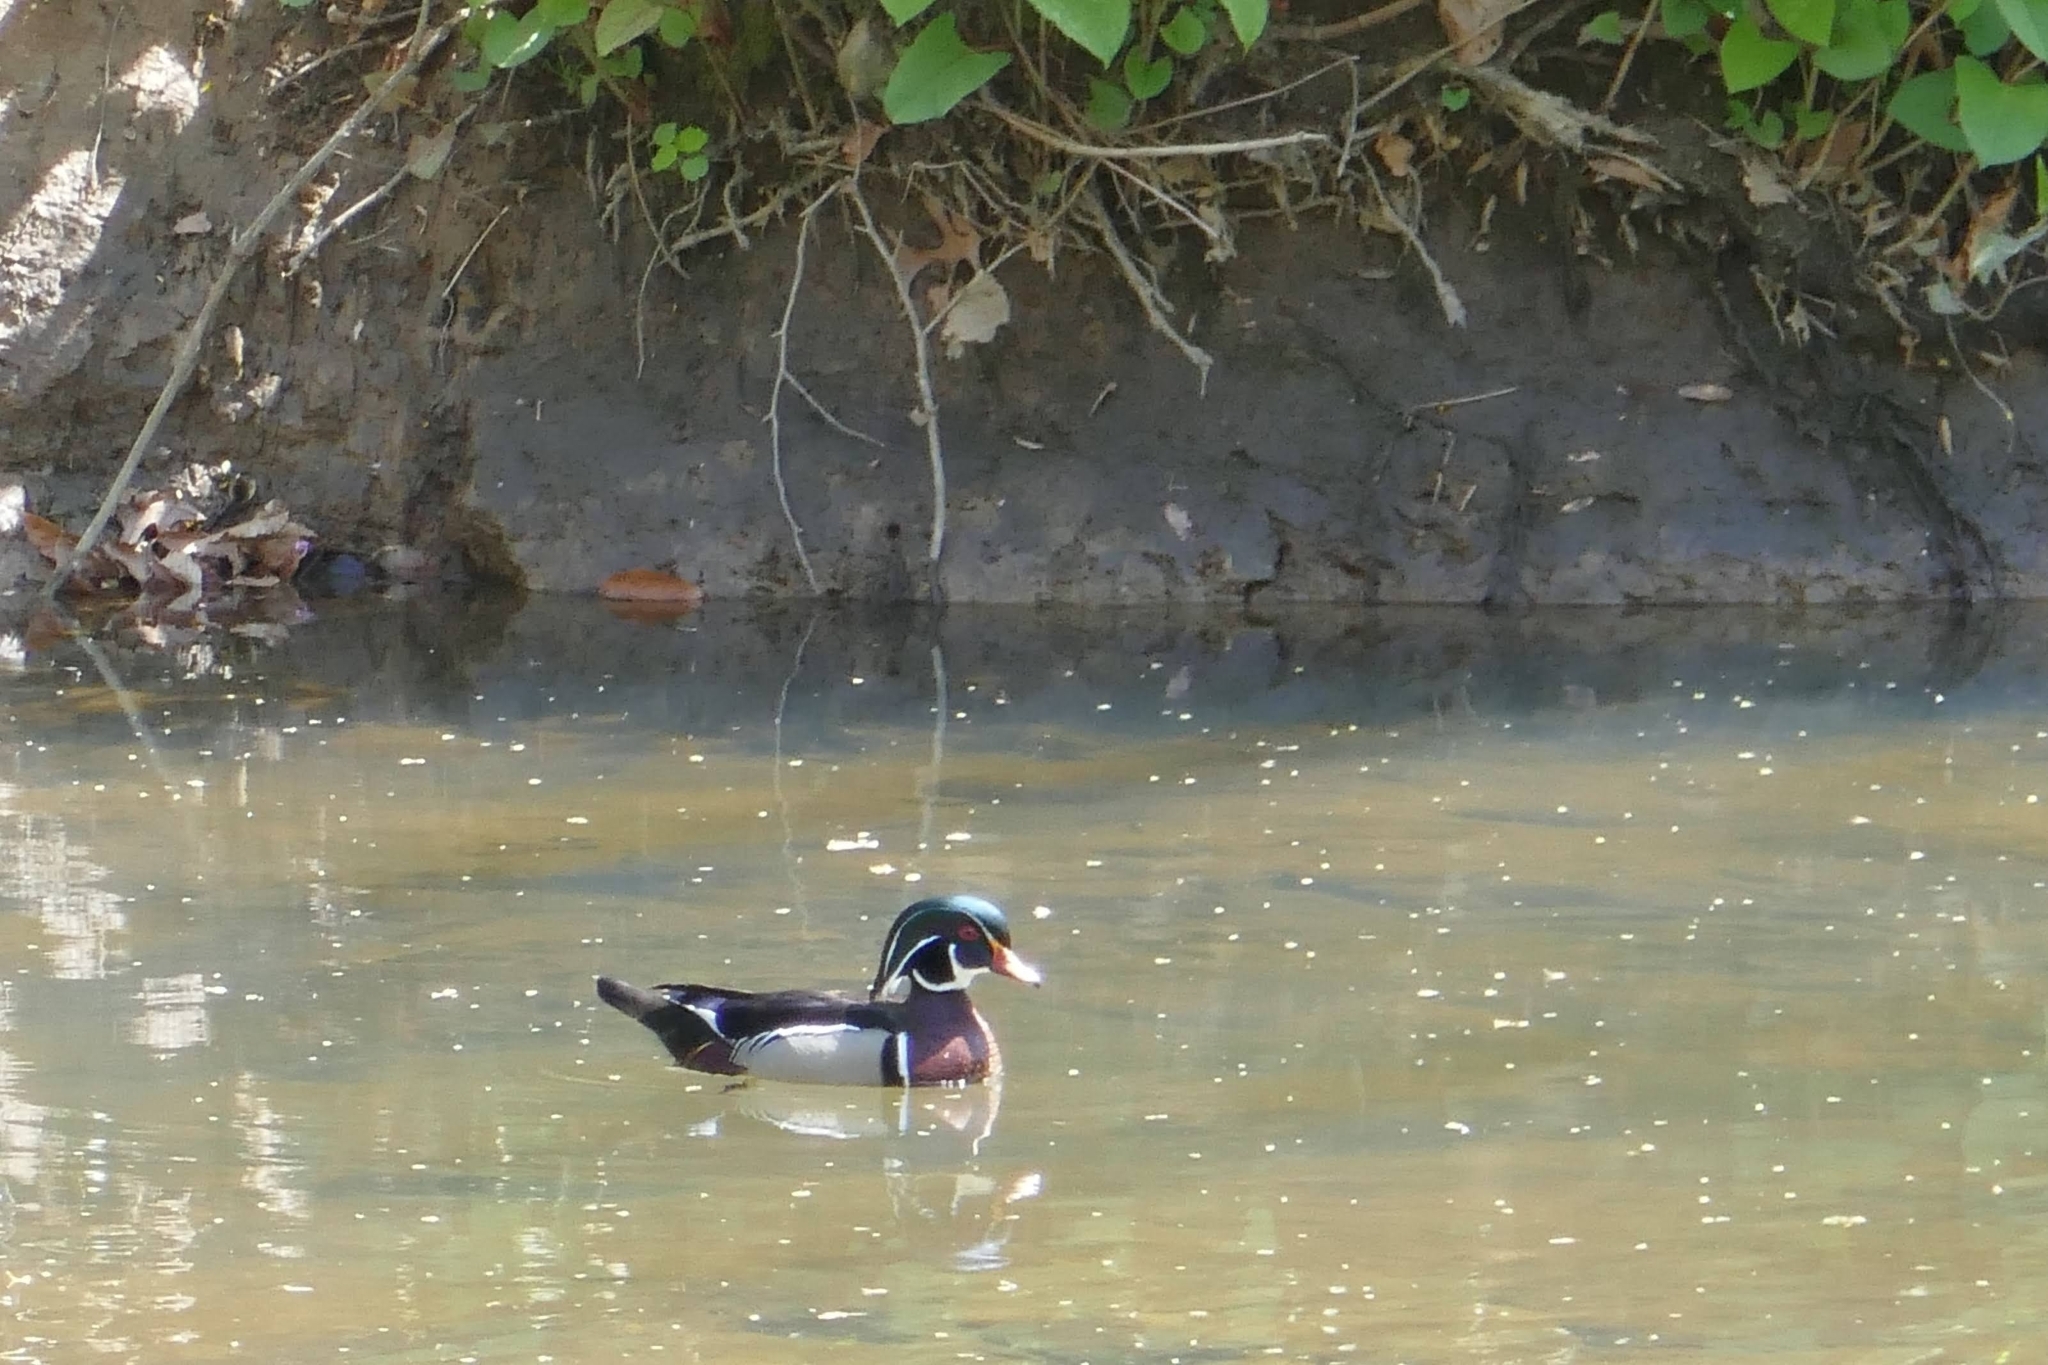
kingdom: Animalia
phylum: Chordata
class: Aves
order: Anseriformes
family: Anatidae
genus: Aix
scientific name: Aix sponsa
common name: Wood duck
